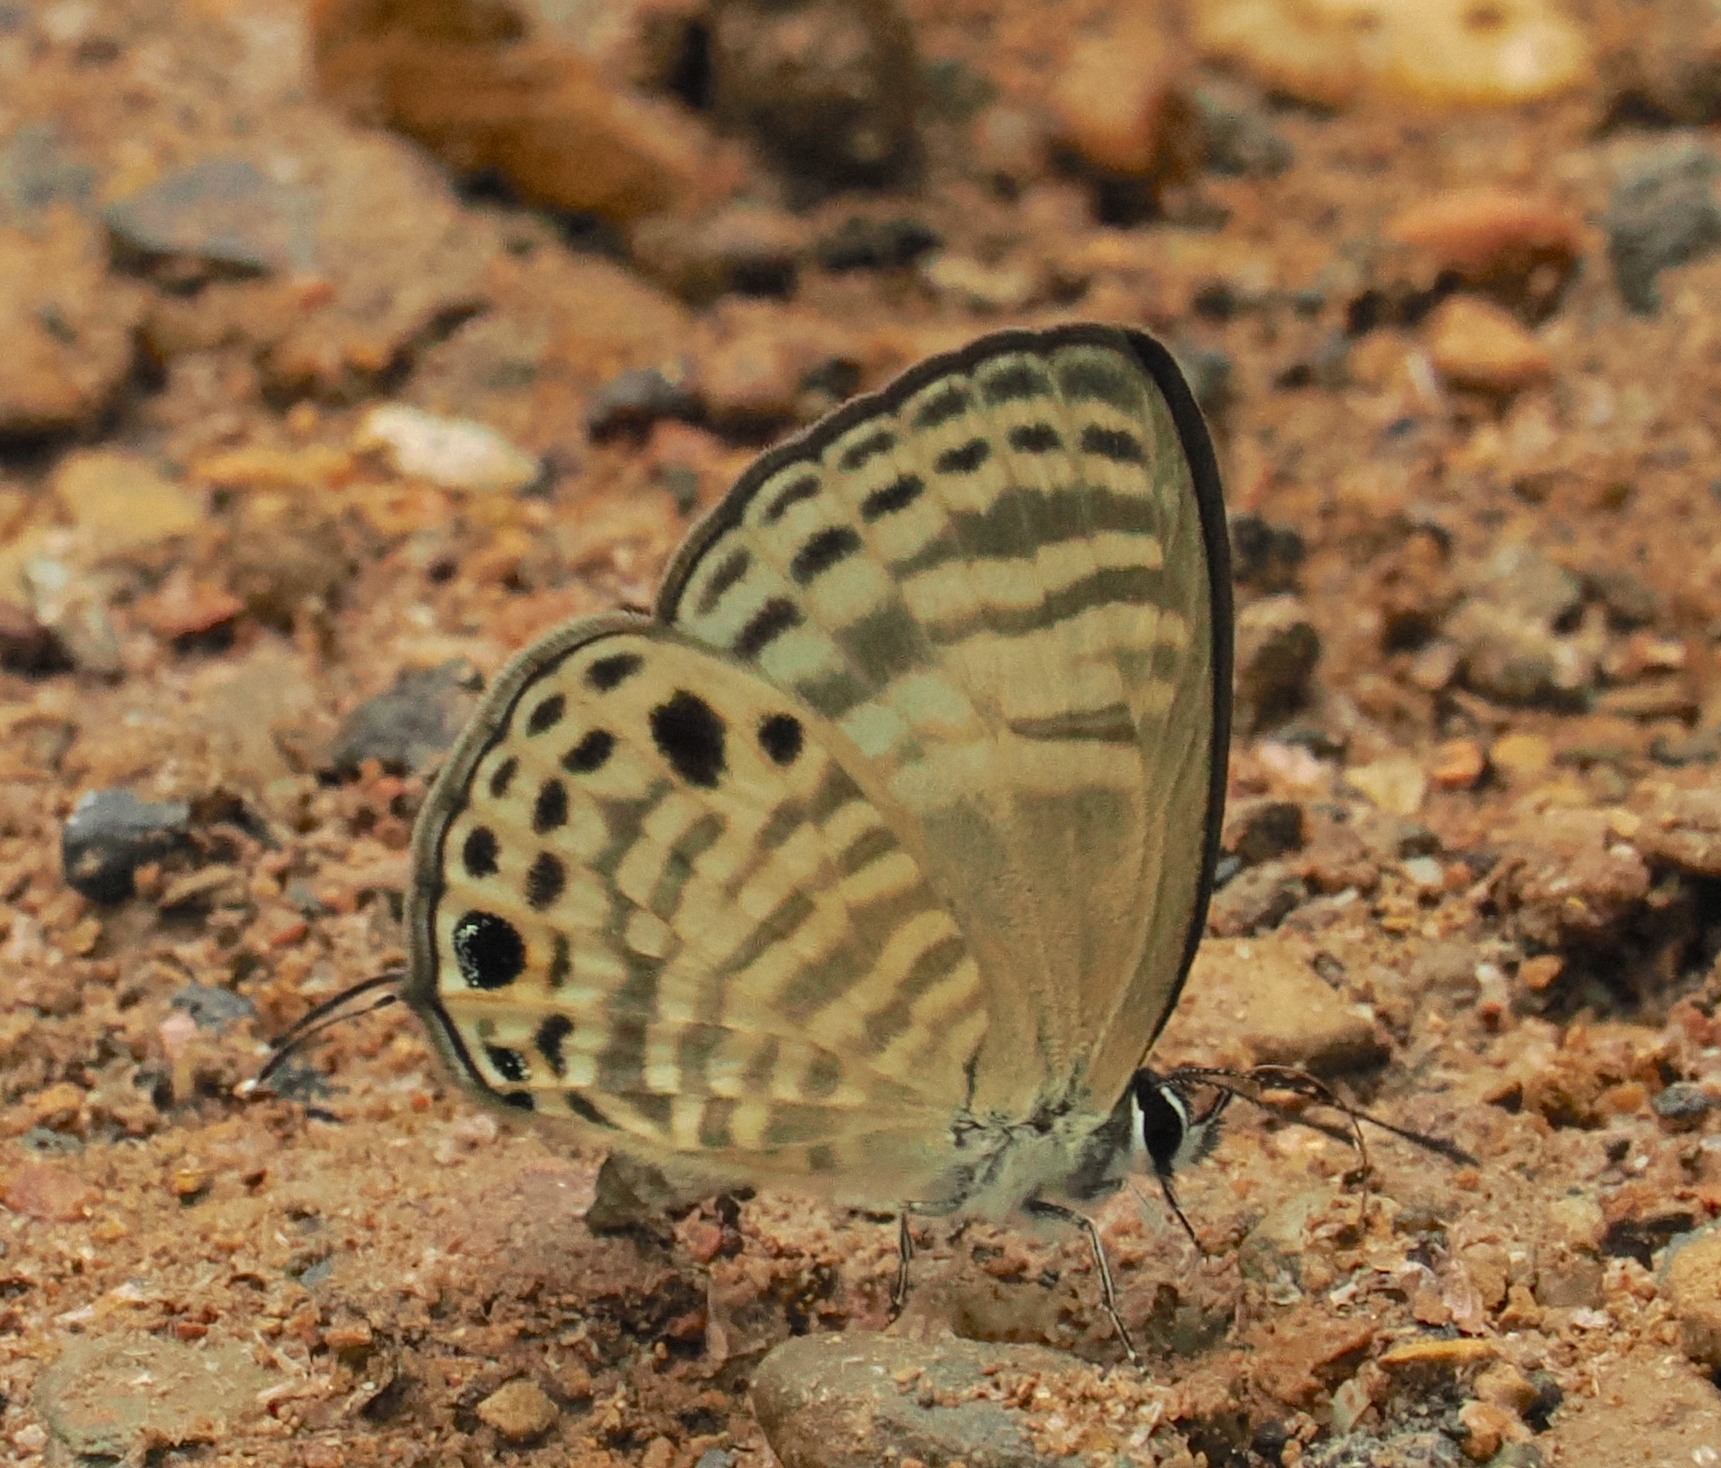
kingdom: Animalia
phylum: Arthropoda
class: Insecta
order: Lepidoptera
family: Lycaenidae
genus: Nacaduba
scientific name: Nacaduba angusta
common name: White four-line blue
